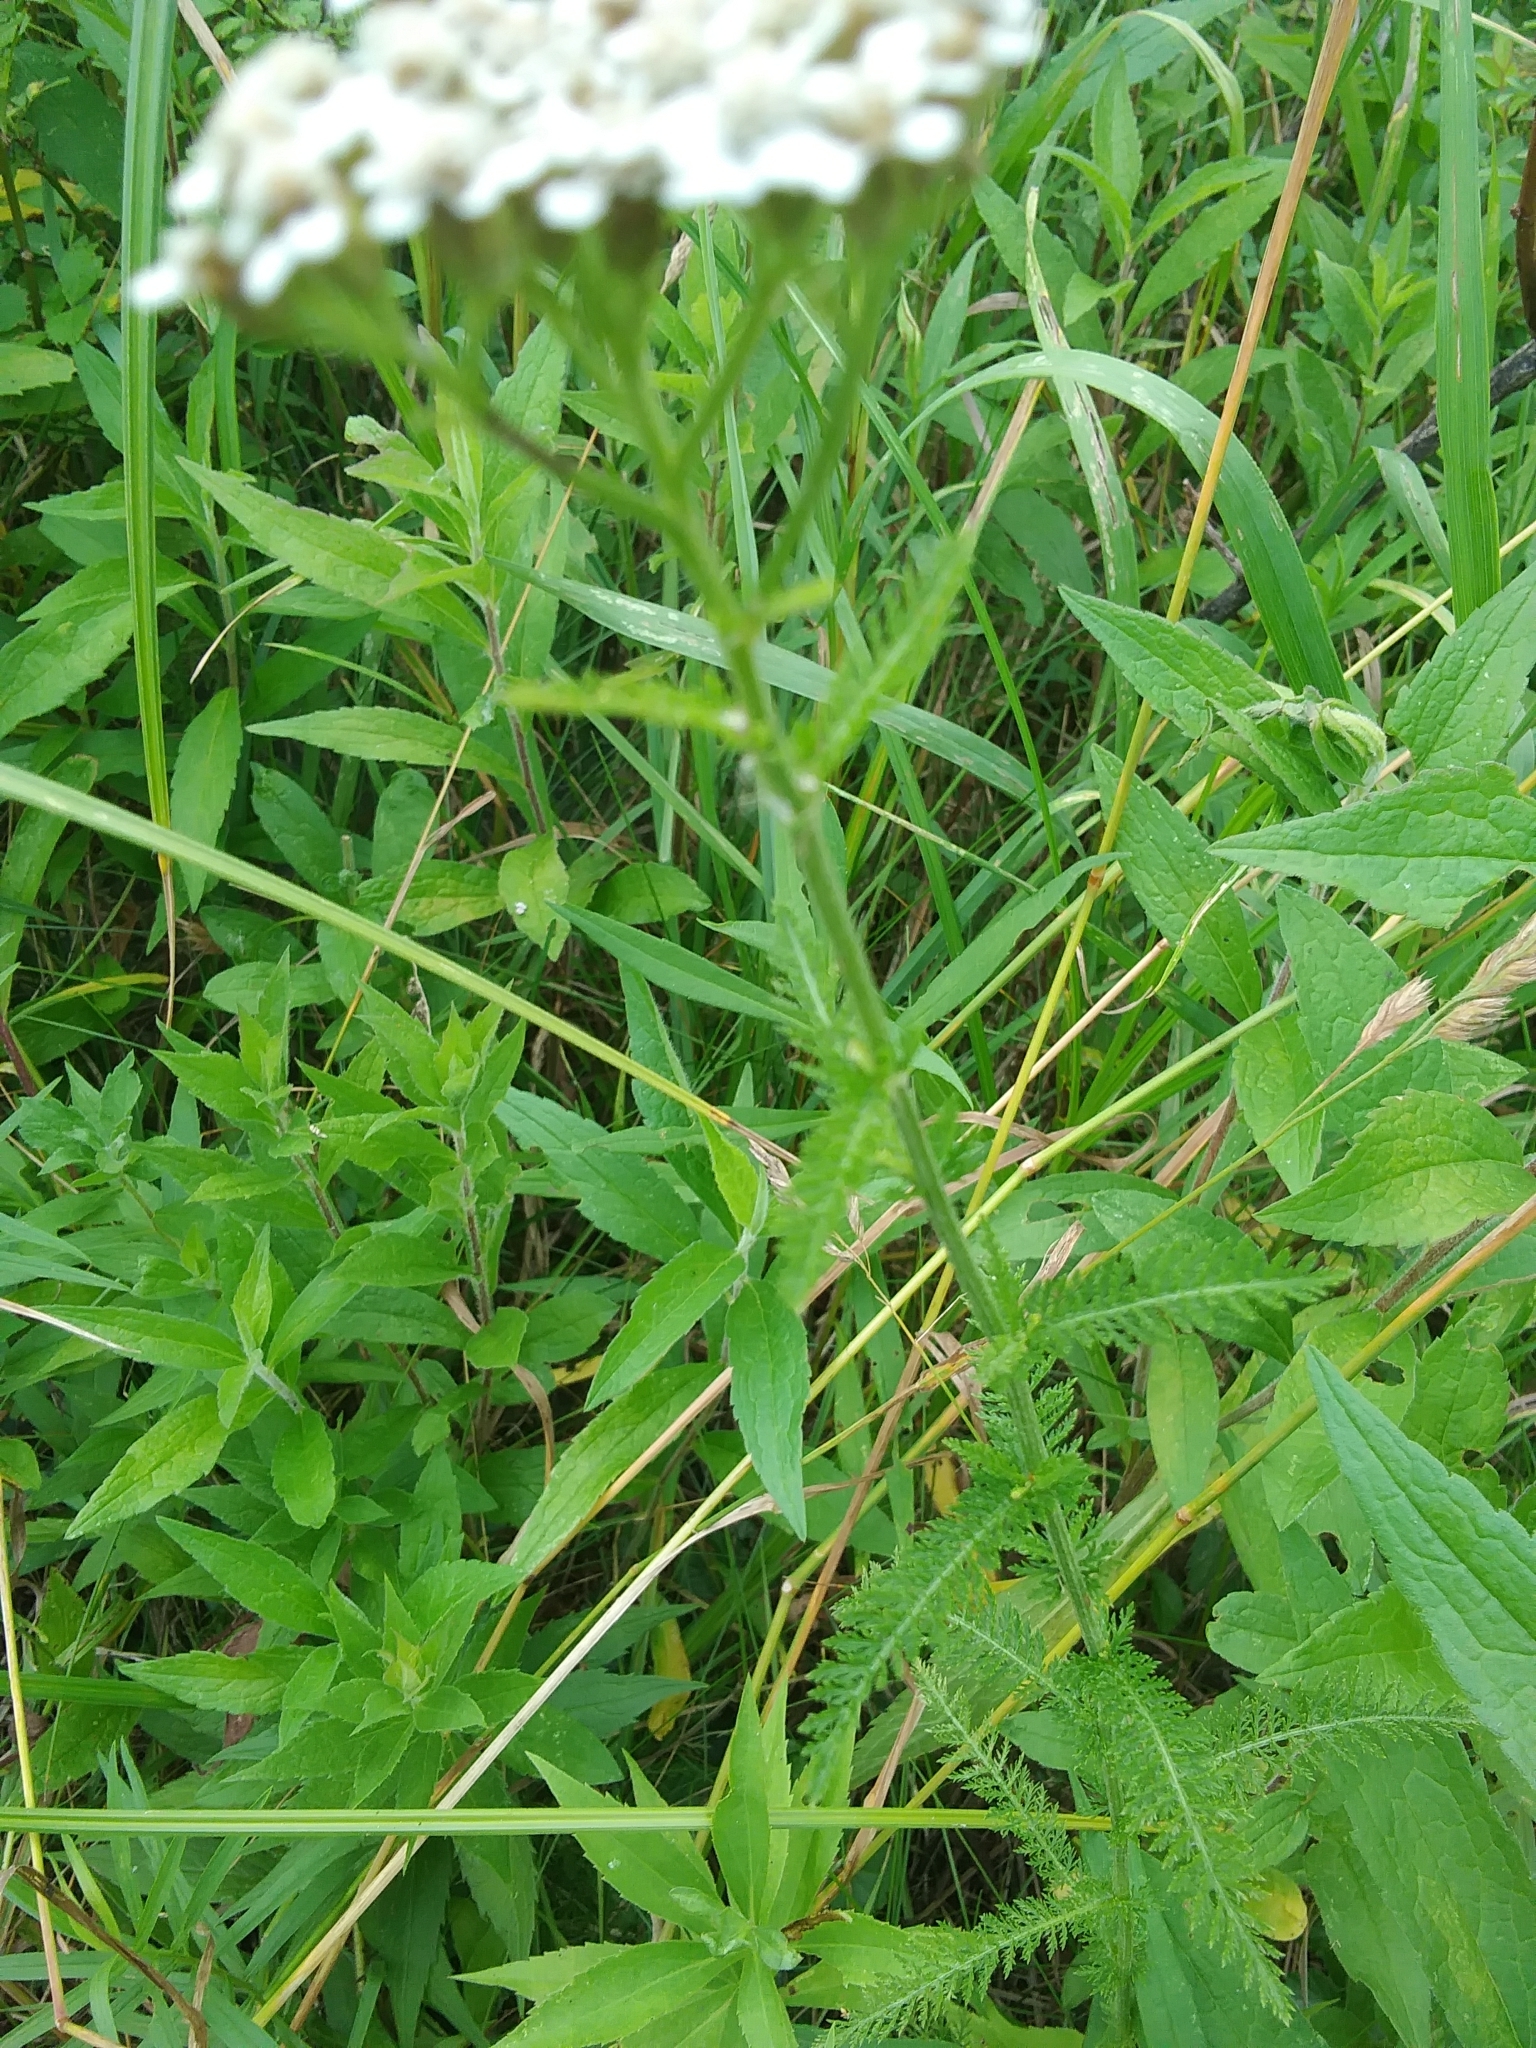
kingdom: Plantae
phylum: Tracheophyta
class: Magnoliopsida
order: Asterales
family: Asteraceae
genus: Achillea
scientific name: Achillea millefolium
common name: Yarrow
